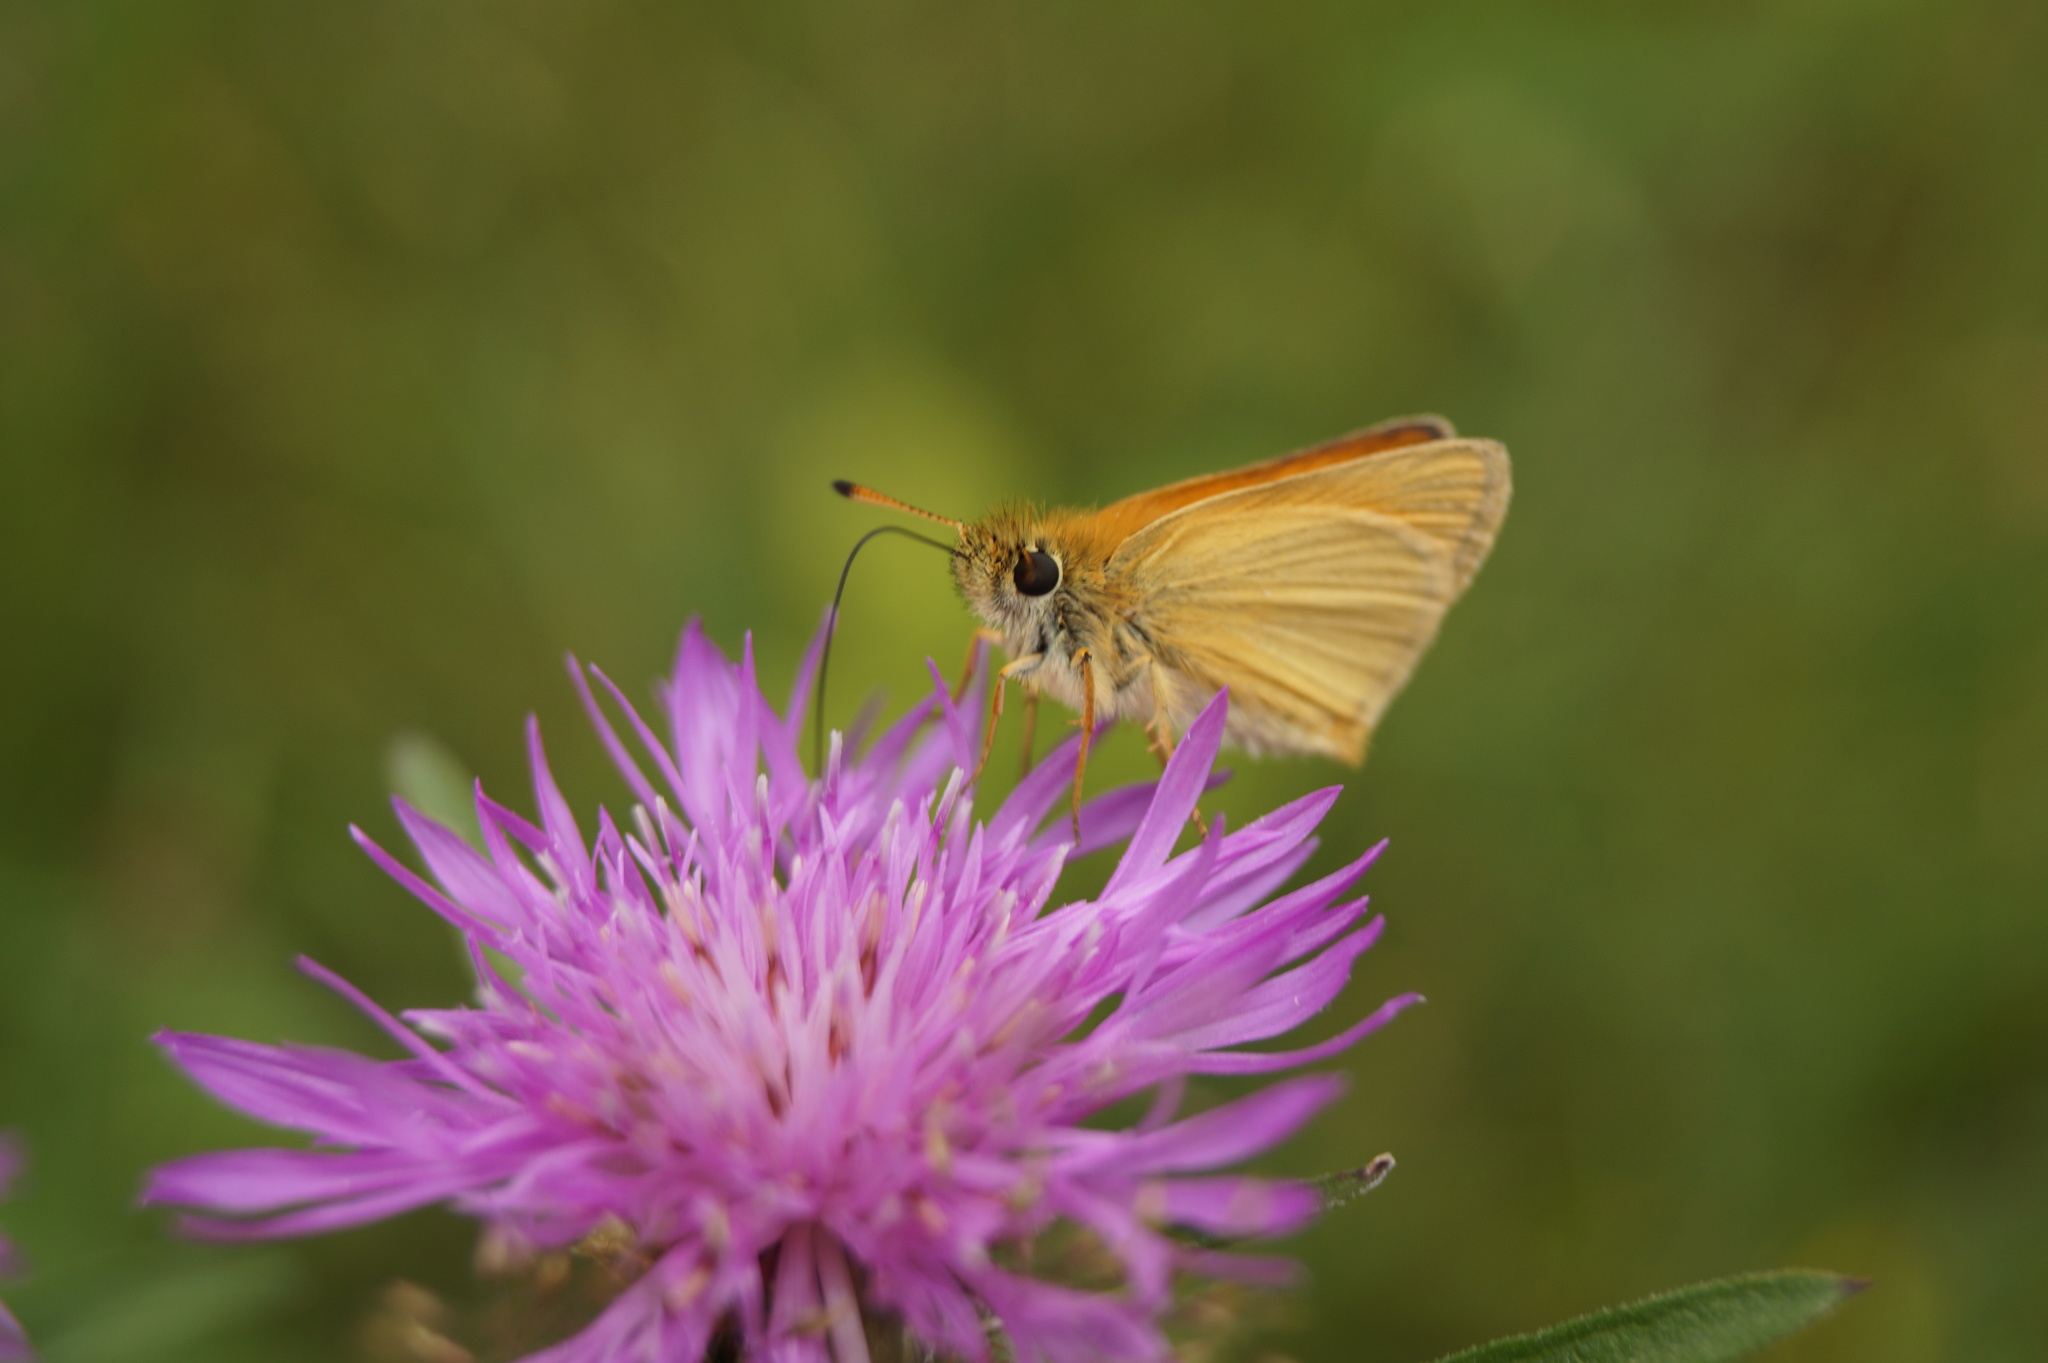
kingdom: Animalia
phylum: Arthropoda
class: Insecta
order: Lepidoptera
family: Hesperiidae
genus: Thymelicus
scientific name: Thymelicus lineola
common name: Essex skipper
